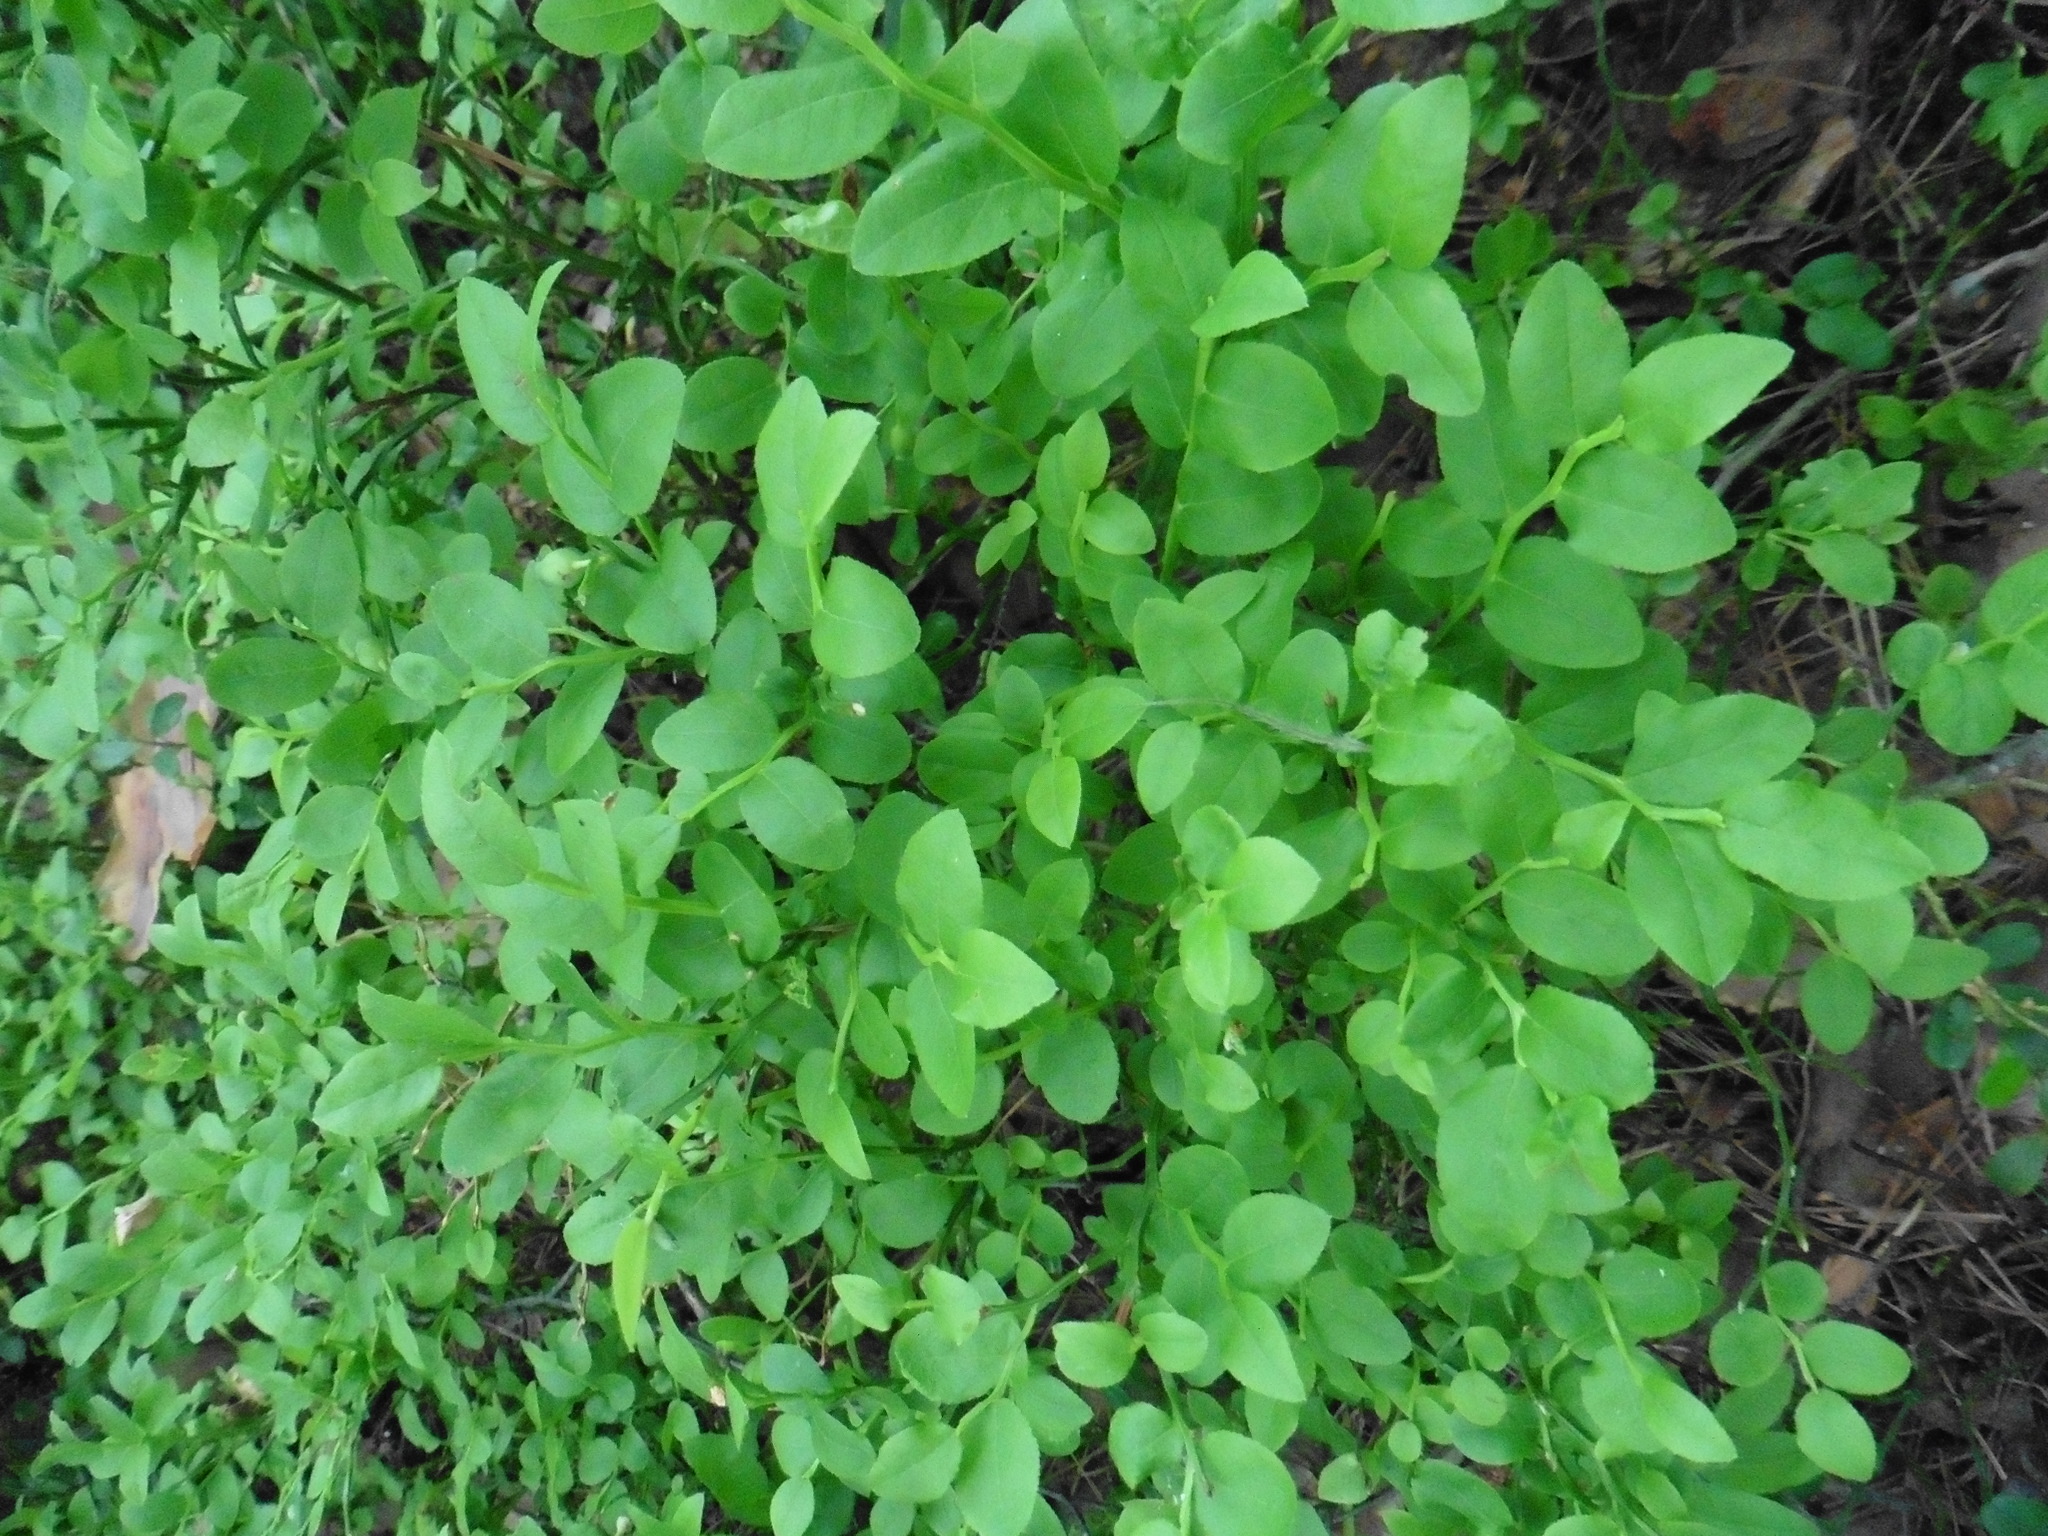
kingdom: Plantae
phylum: Tracheophyta
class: Magnoliopsida
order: Ericales
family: Ericaceae
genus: Vaccinium
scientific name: Vaccinium myrtillus
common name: Bilberry
